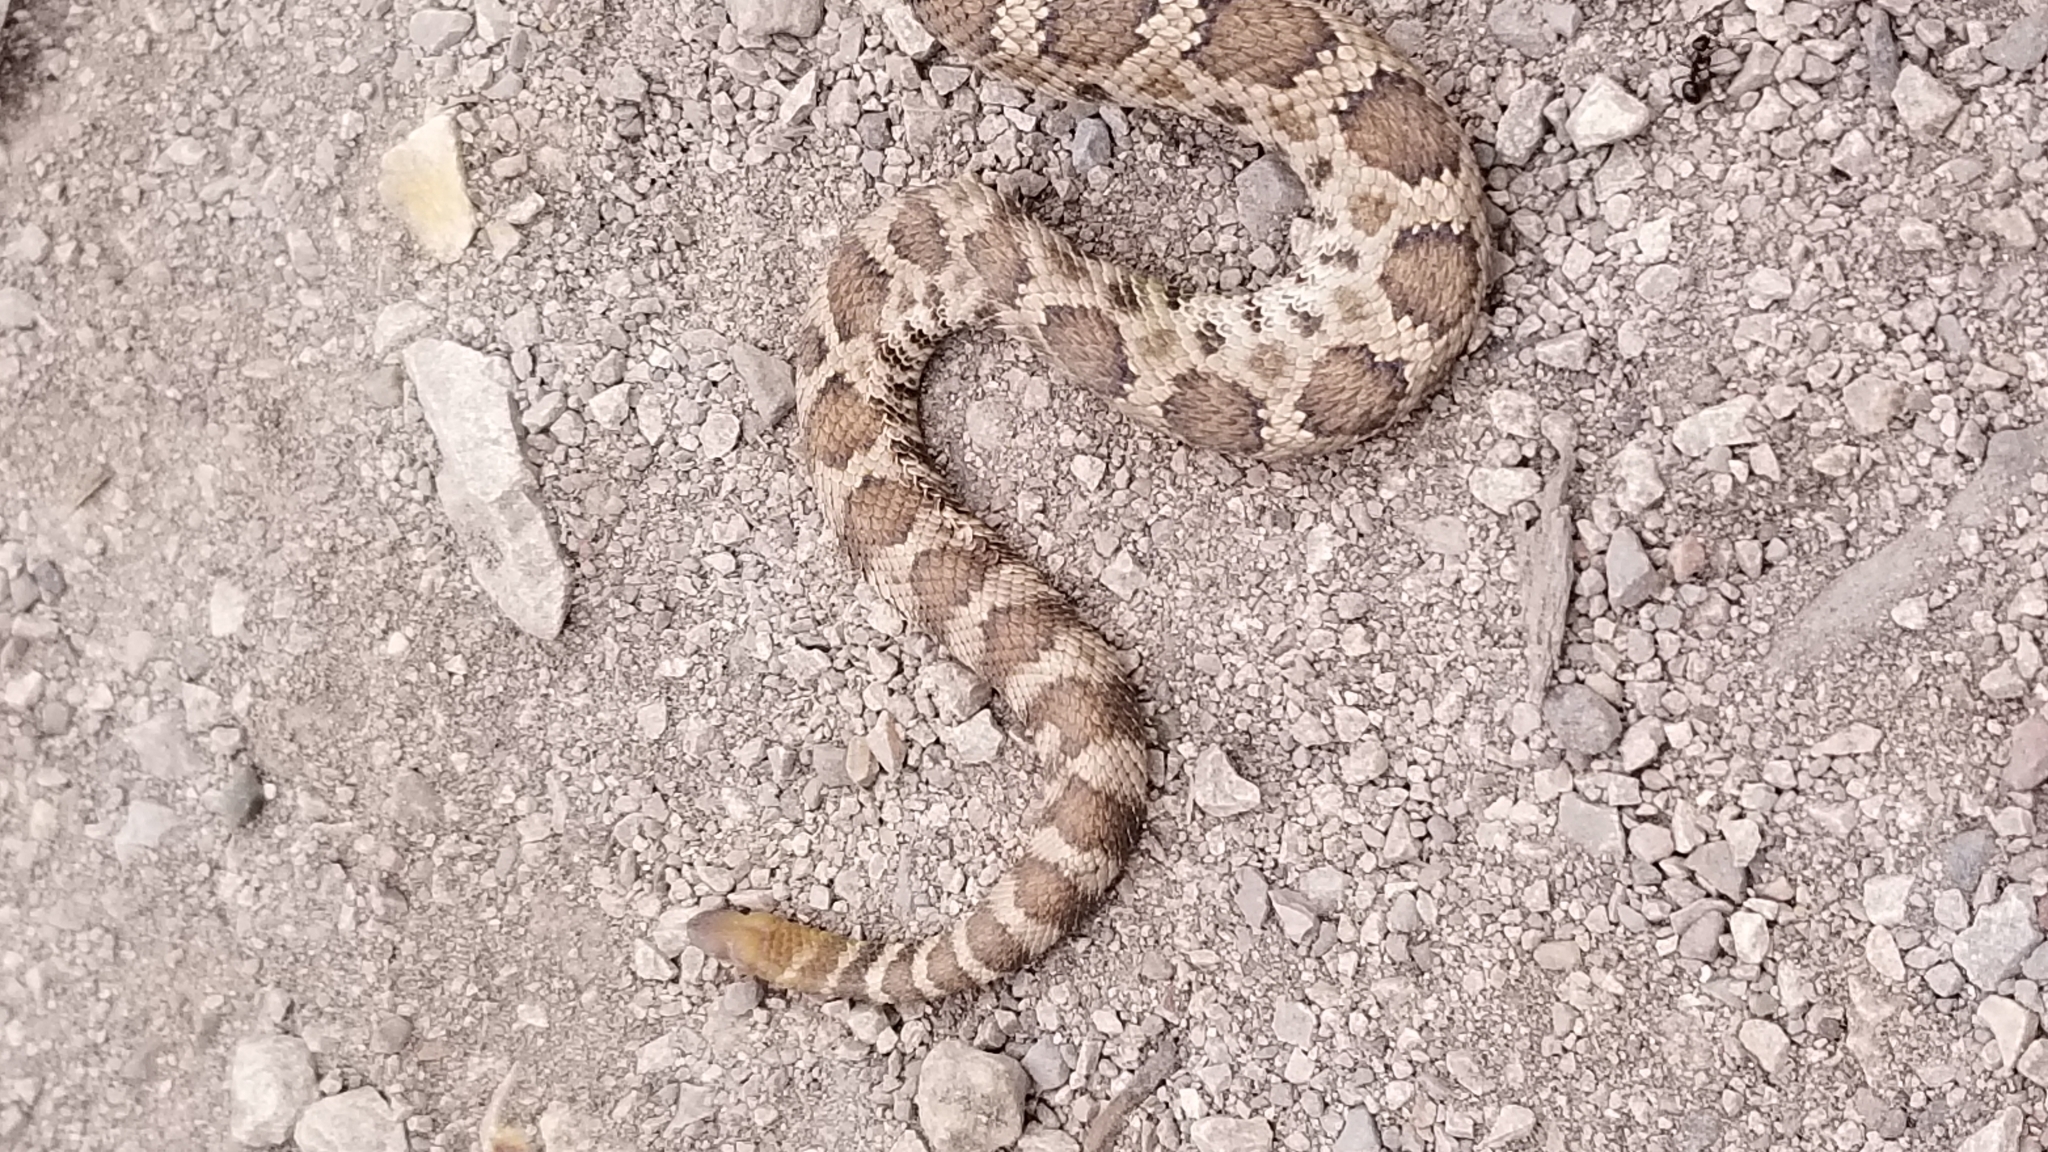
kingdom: Animalia
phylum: Chordata
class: Squamata
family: Viperidae
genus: Crotalus
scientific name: Crotalus oreganus
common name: Abyssus
